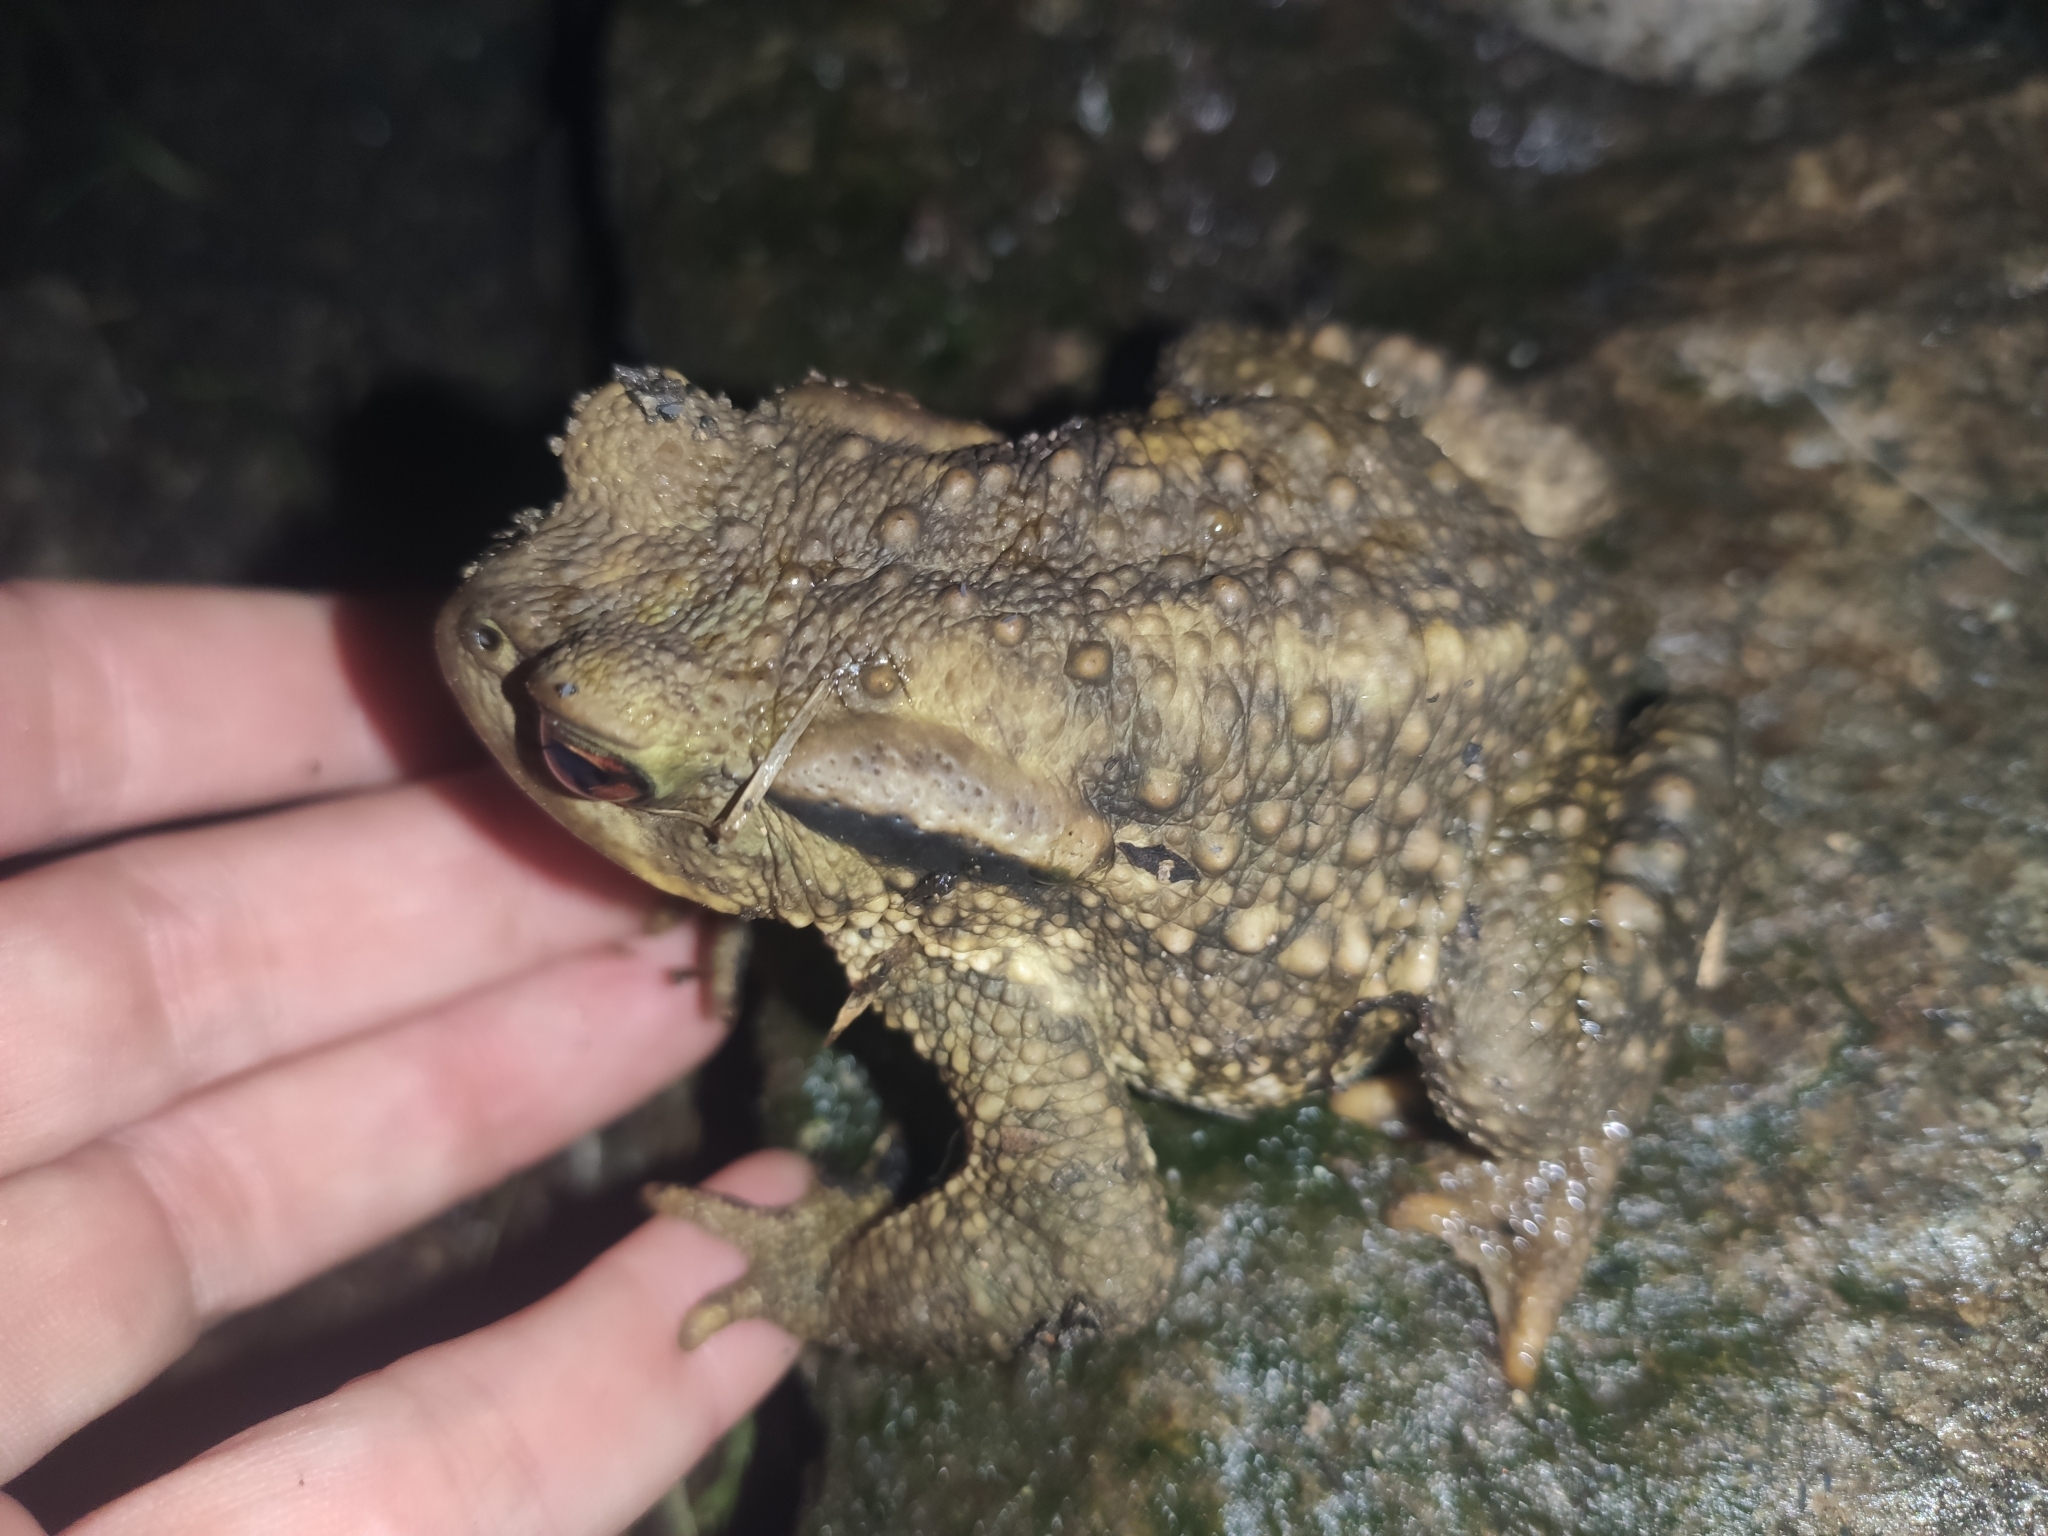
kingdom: Animalia
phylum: Chordata
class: Amphibia
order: Anura
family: Bufonidae
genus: Bufo
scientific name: Bufo spinosus
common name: Western common toad
